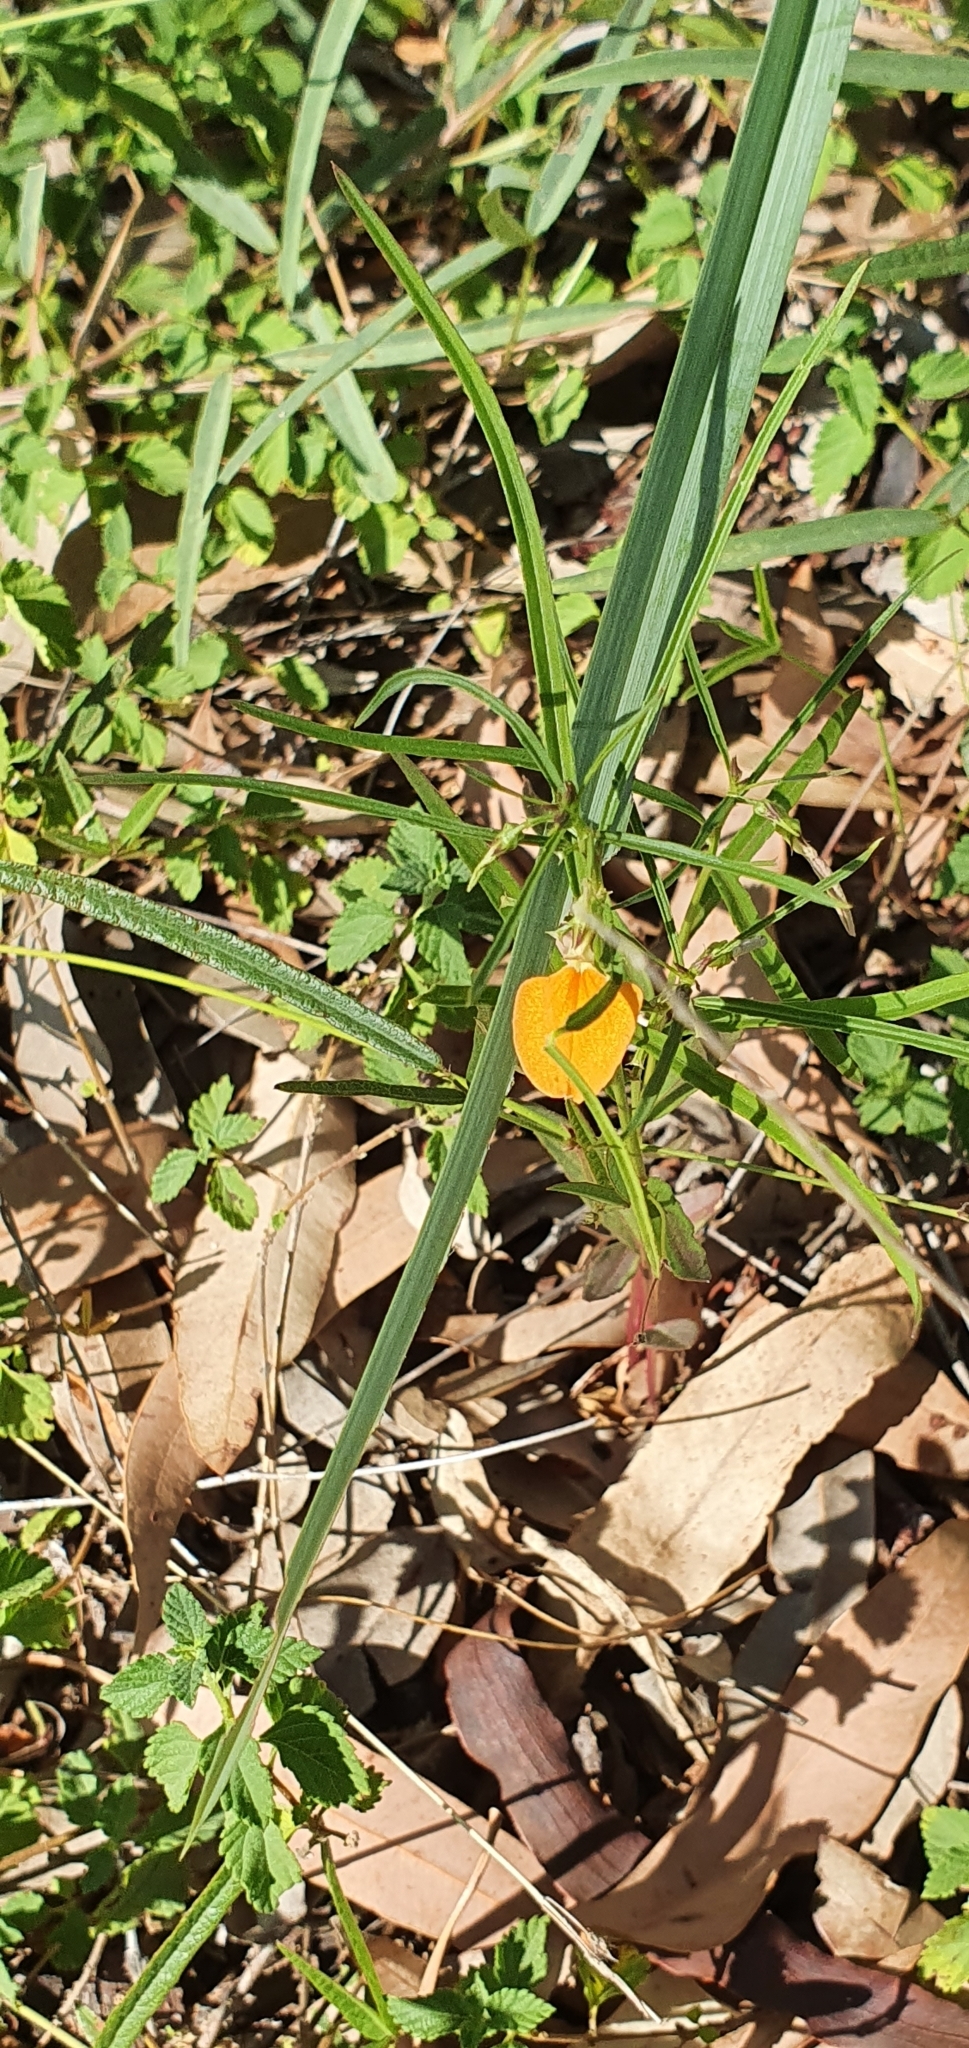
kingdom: Plantae
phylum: Tracheophyta
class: Magnoliopsida
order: Malpighiales
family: Violaceae
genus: Pigea
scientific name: Pigea stellarioides
